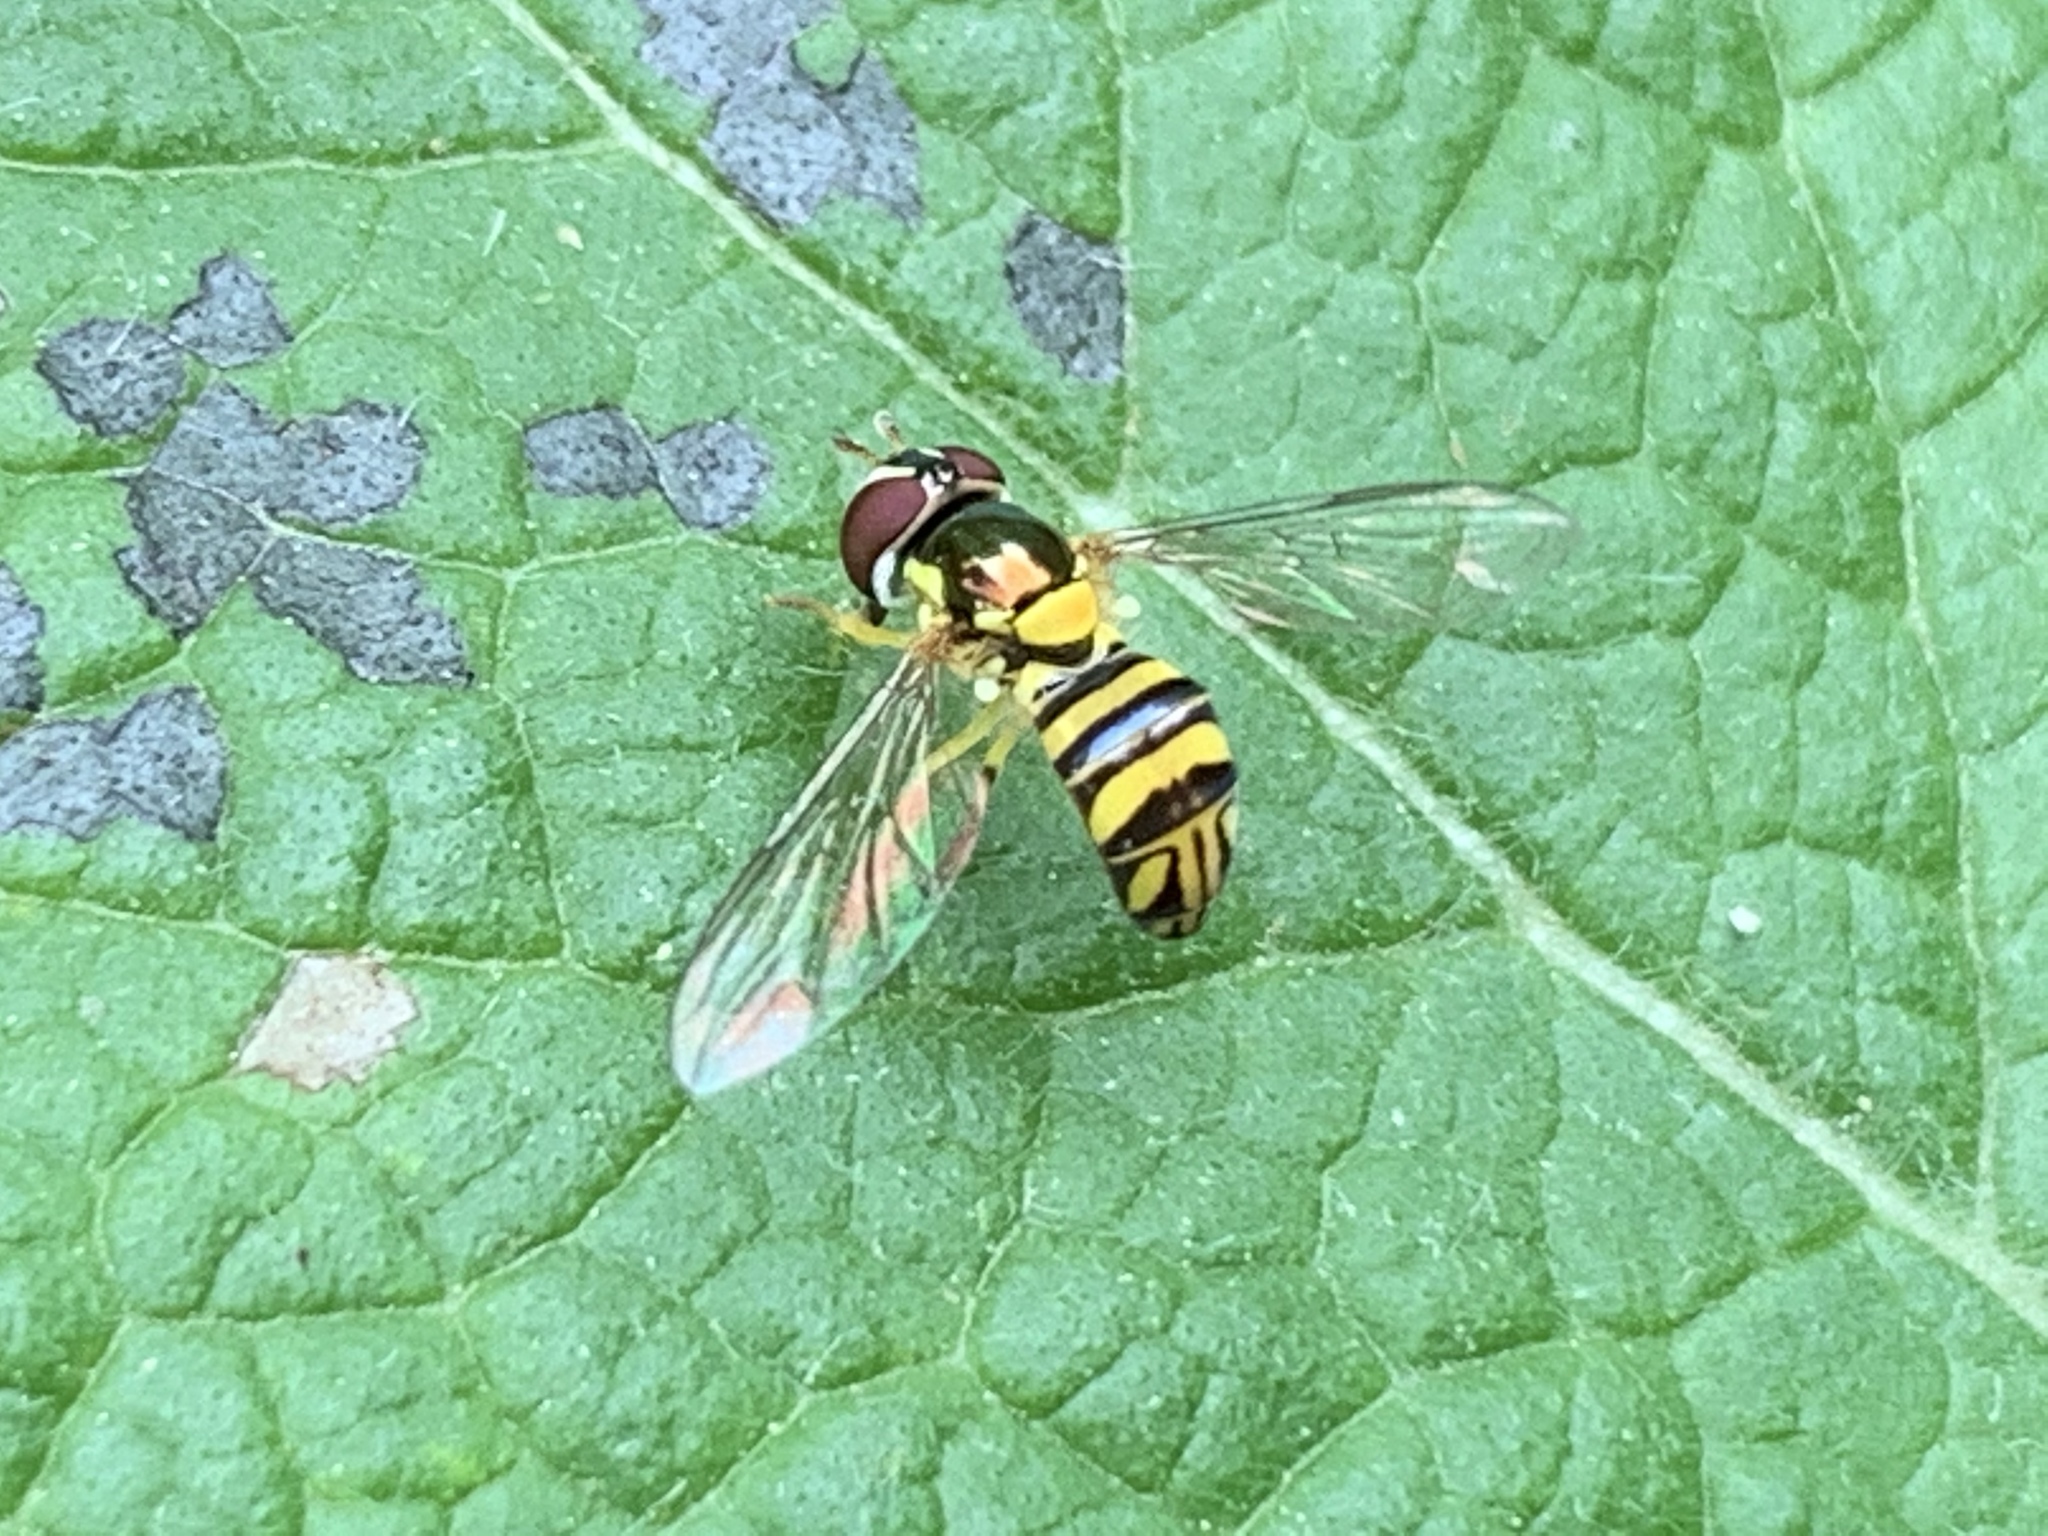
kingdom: Animalia
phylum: Arthropoda
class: Insecta
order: Diptera
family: Syrphidae
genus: Allograpta
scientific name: Allograpta obliqua
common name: Common oblique syrphid
